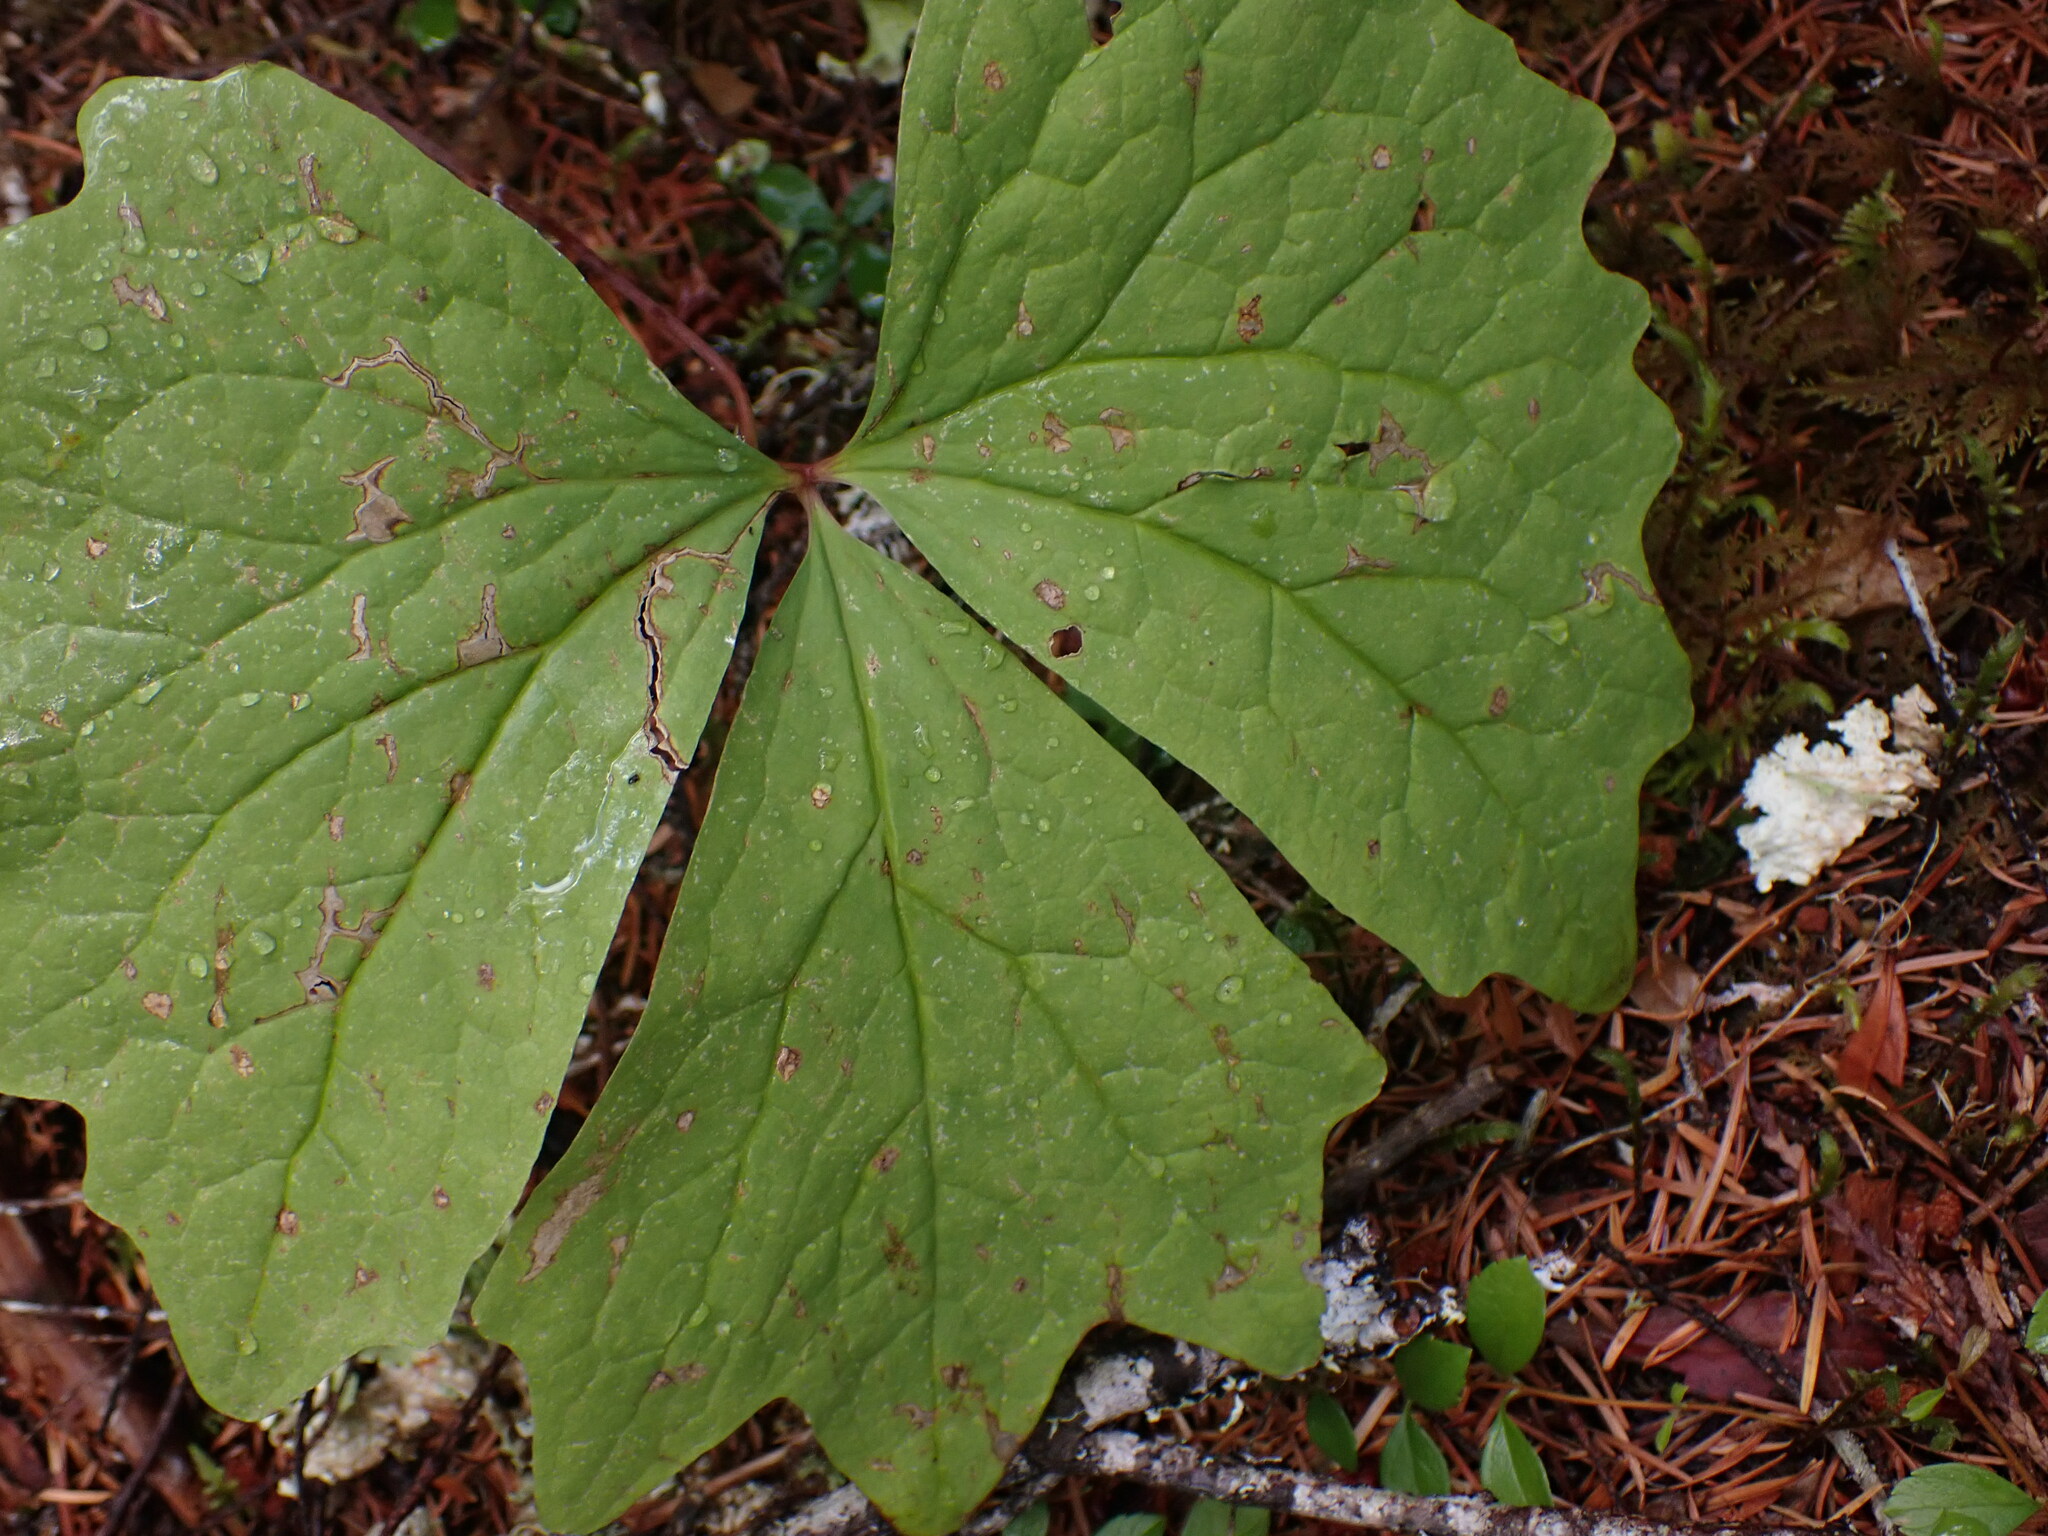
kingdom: Plantae
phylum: Tracheophyta
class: Magnoliopsida
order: Ranunculales
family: Berberidaceae
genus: Achlys
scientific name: Achlys triphylla
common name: Vanilla-leaf
